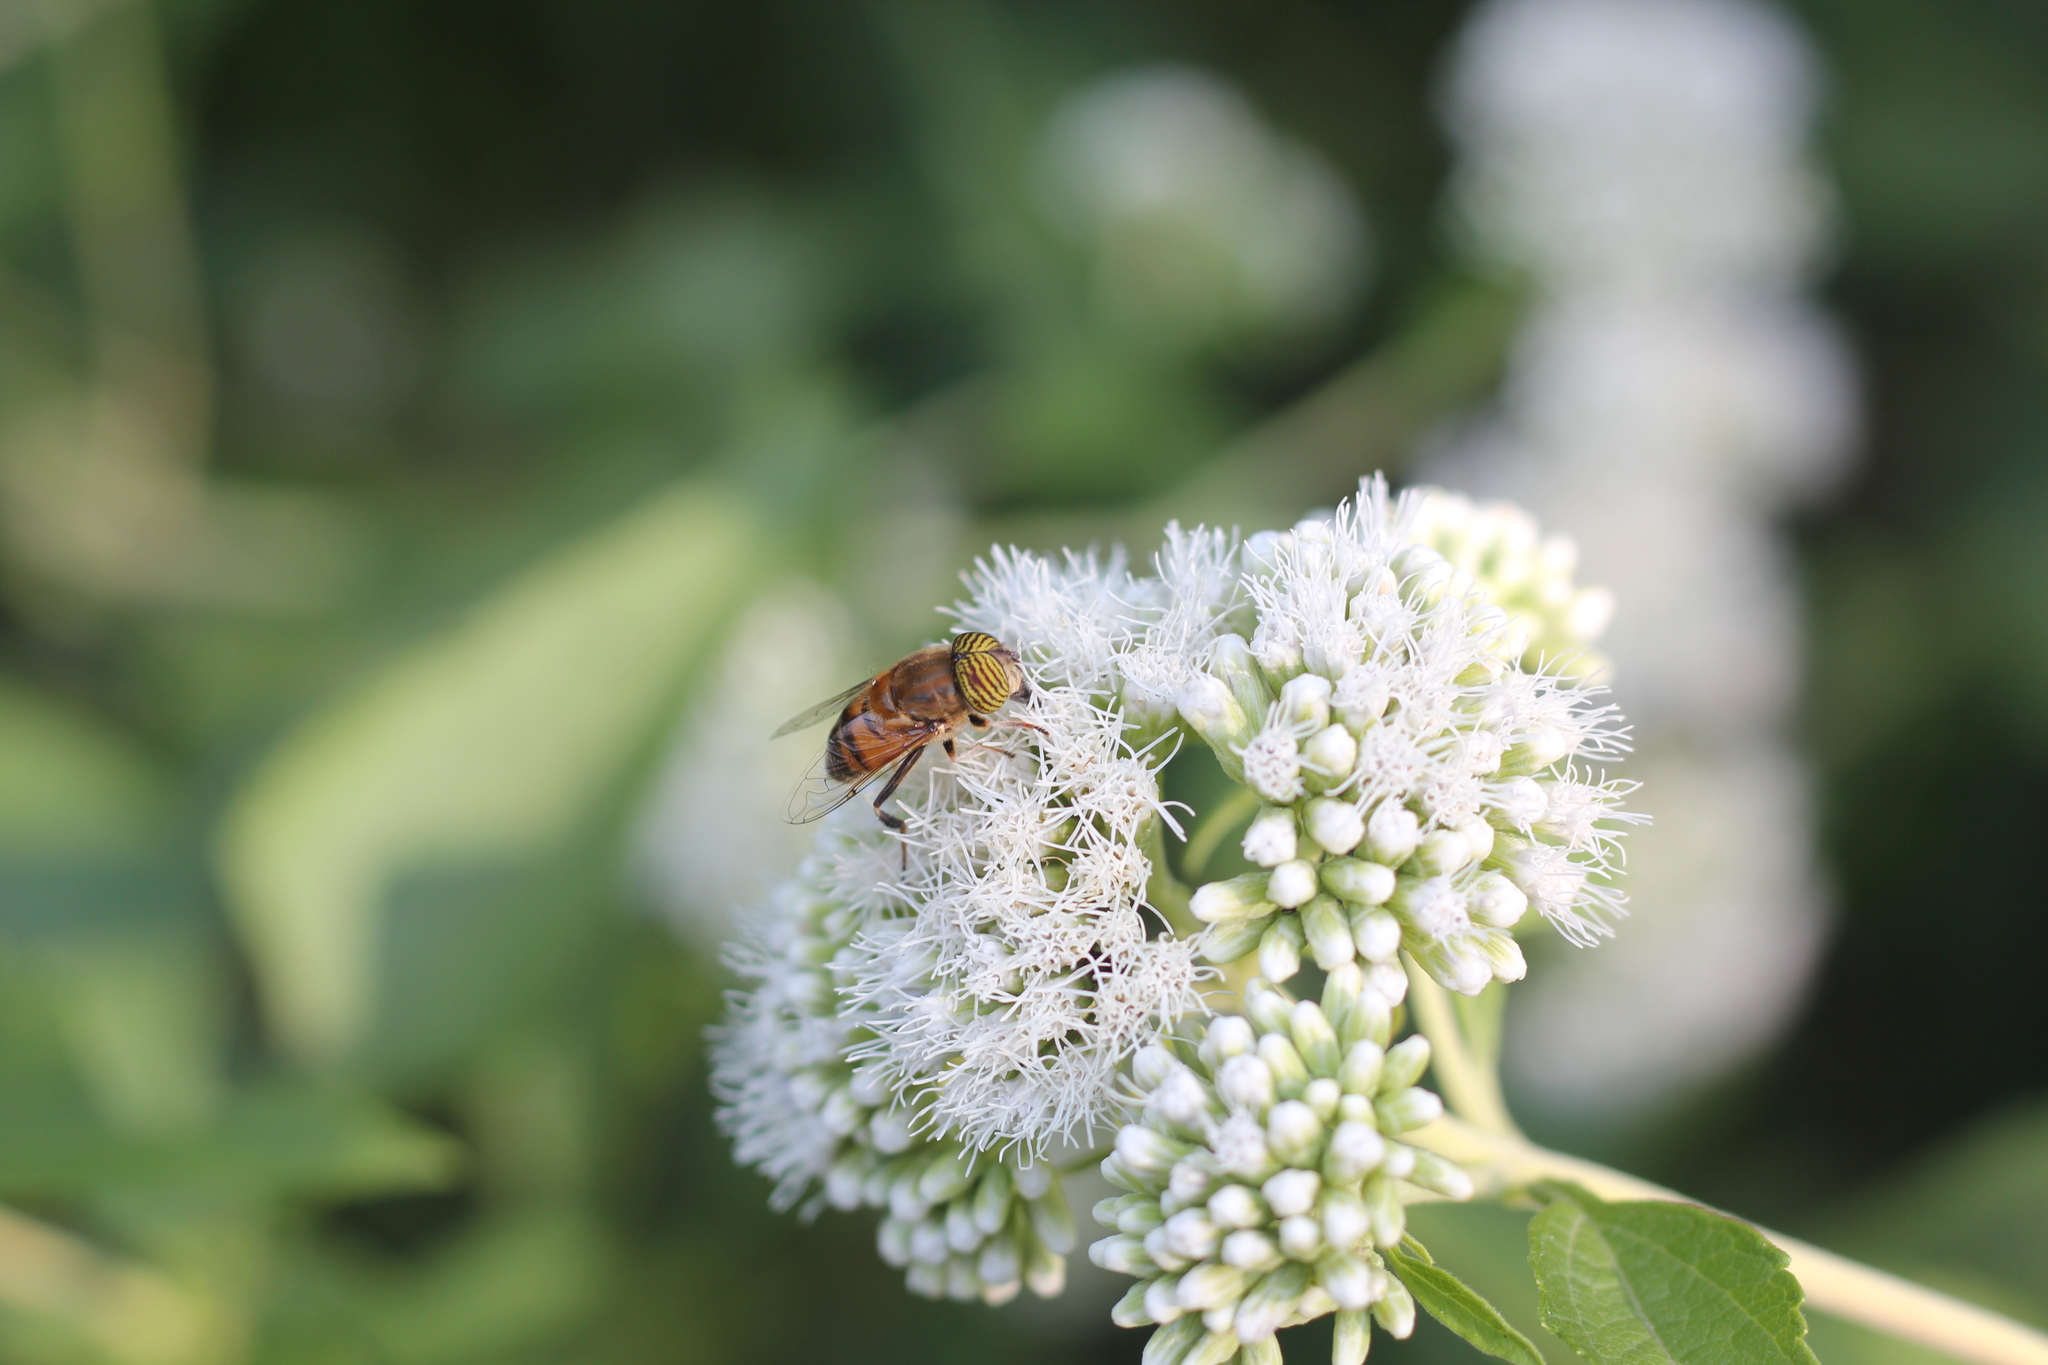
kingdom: Animalia
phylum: Arthropoda
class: Insecta
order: Diptera
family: Syrphidae
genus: Eristalinus
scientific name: Eristalinus taeniops
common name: Syrphid fly
